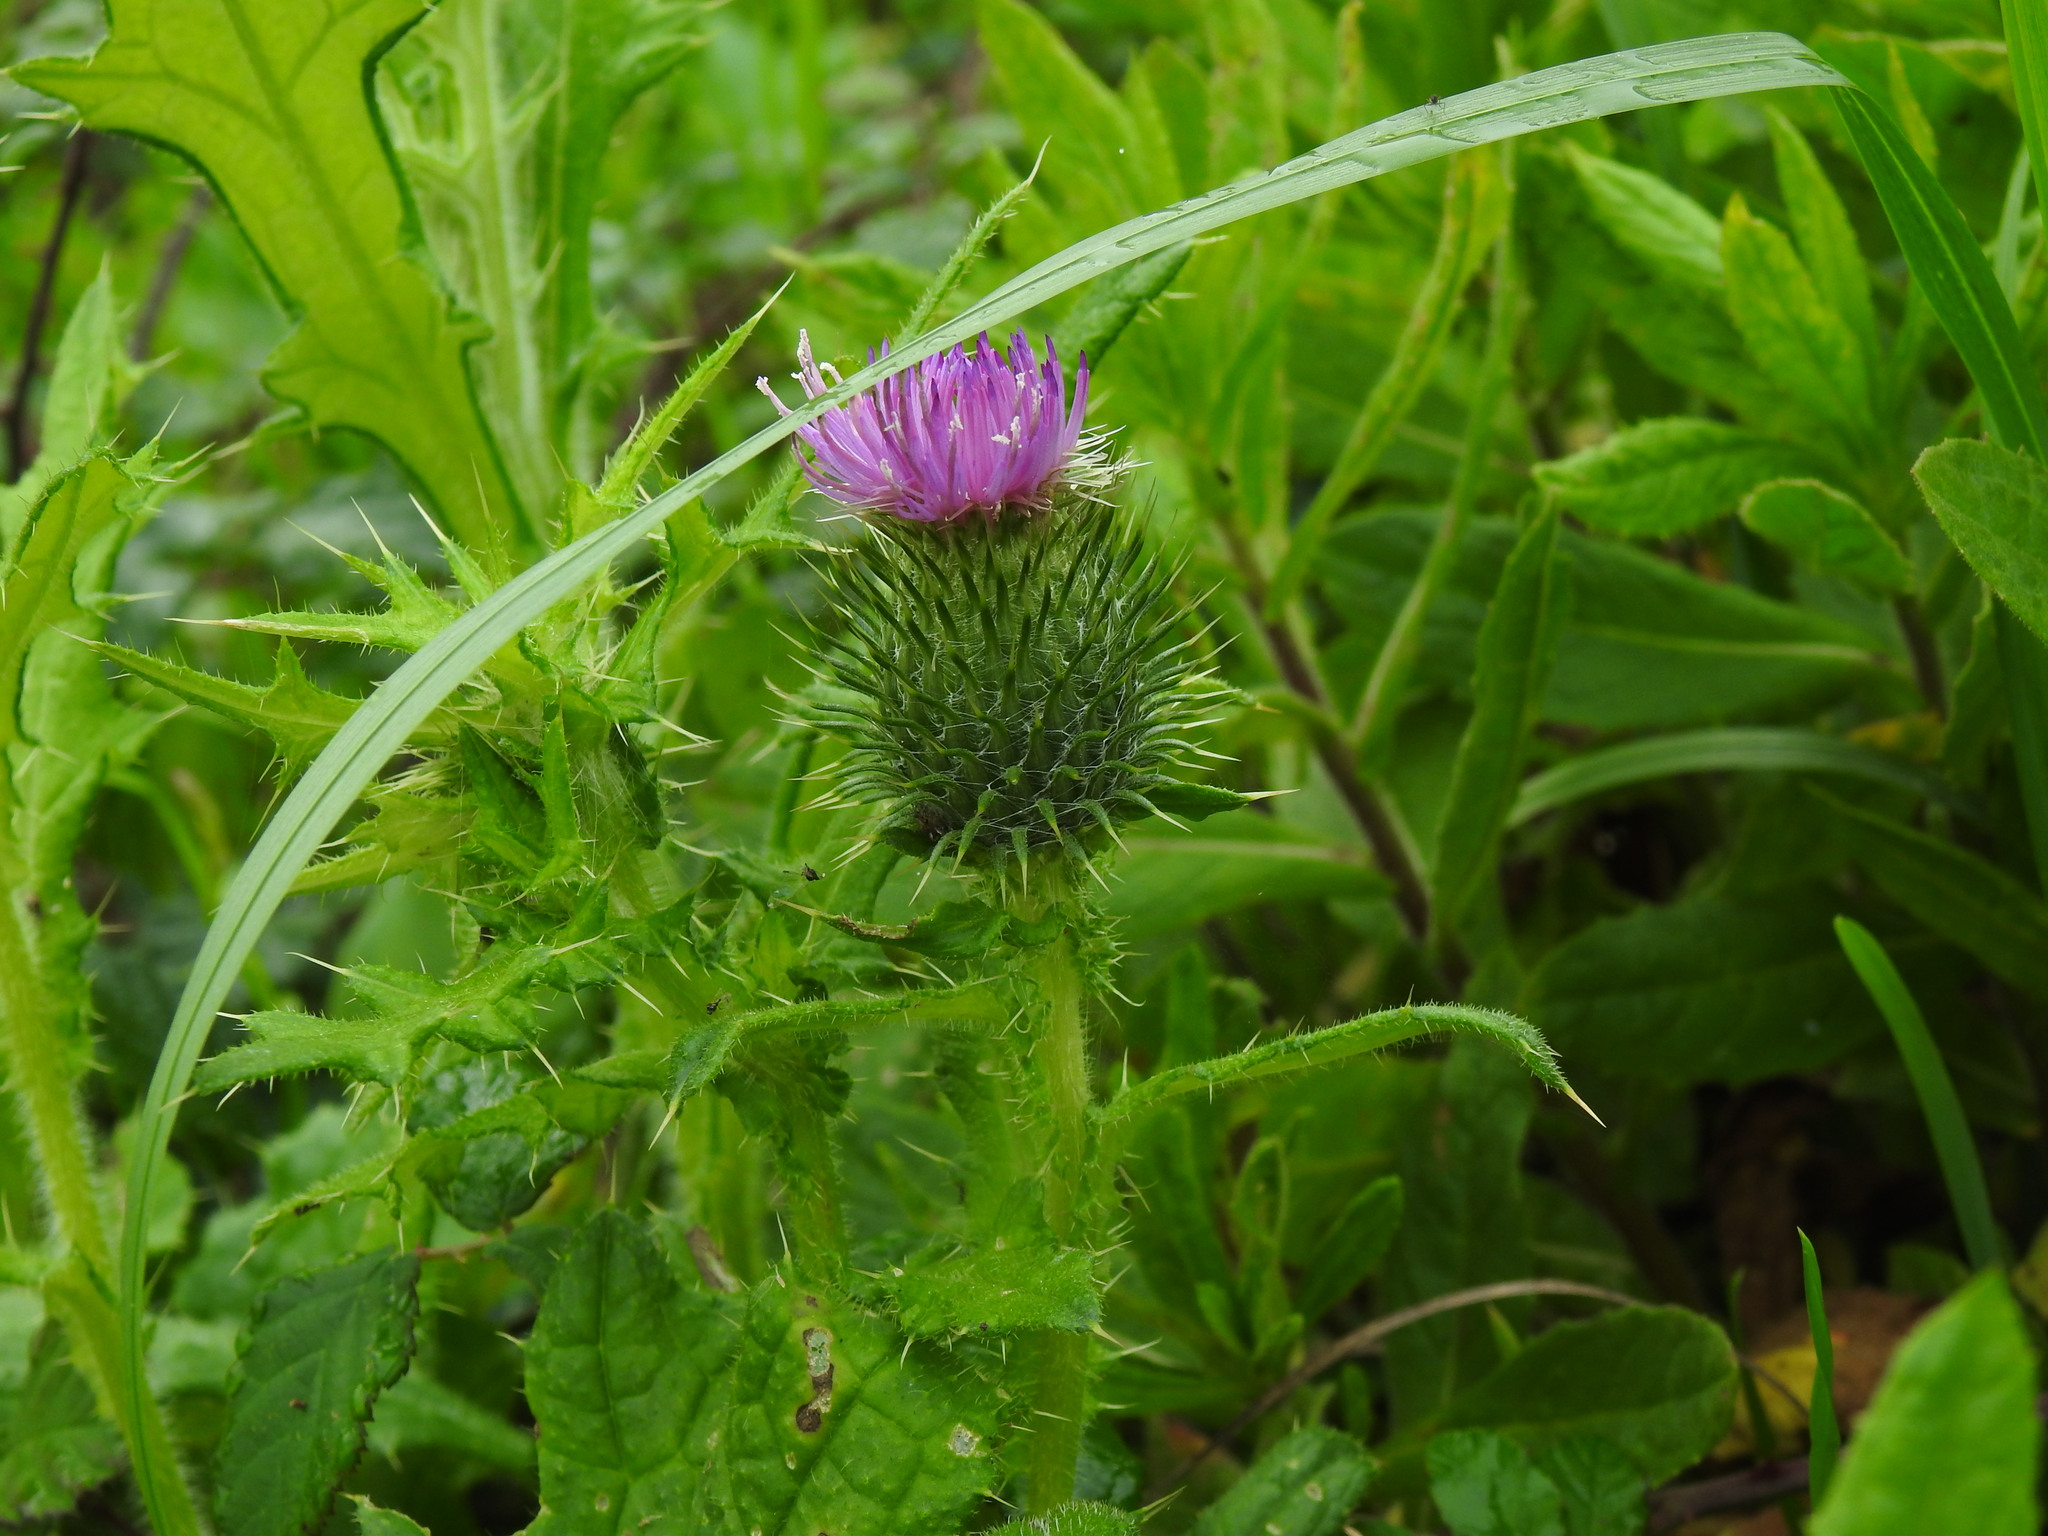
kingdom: Plantae
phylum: Tracheophyta
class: Magnoliopsida
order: Asterales
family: Asteraceae
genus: Cirsium
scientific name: Cirsium vulgare
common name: Bull thistle
